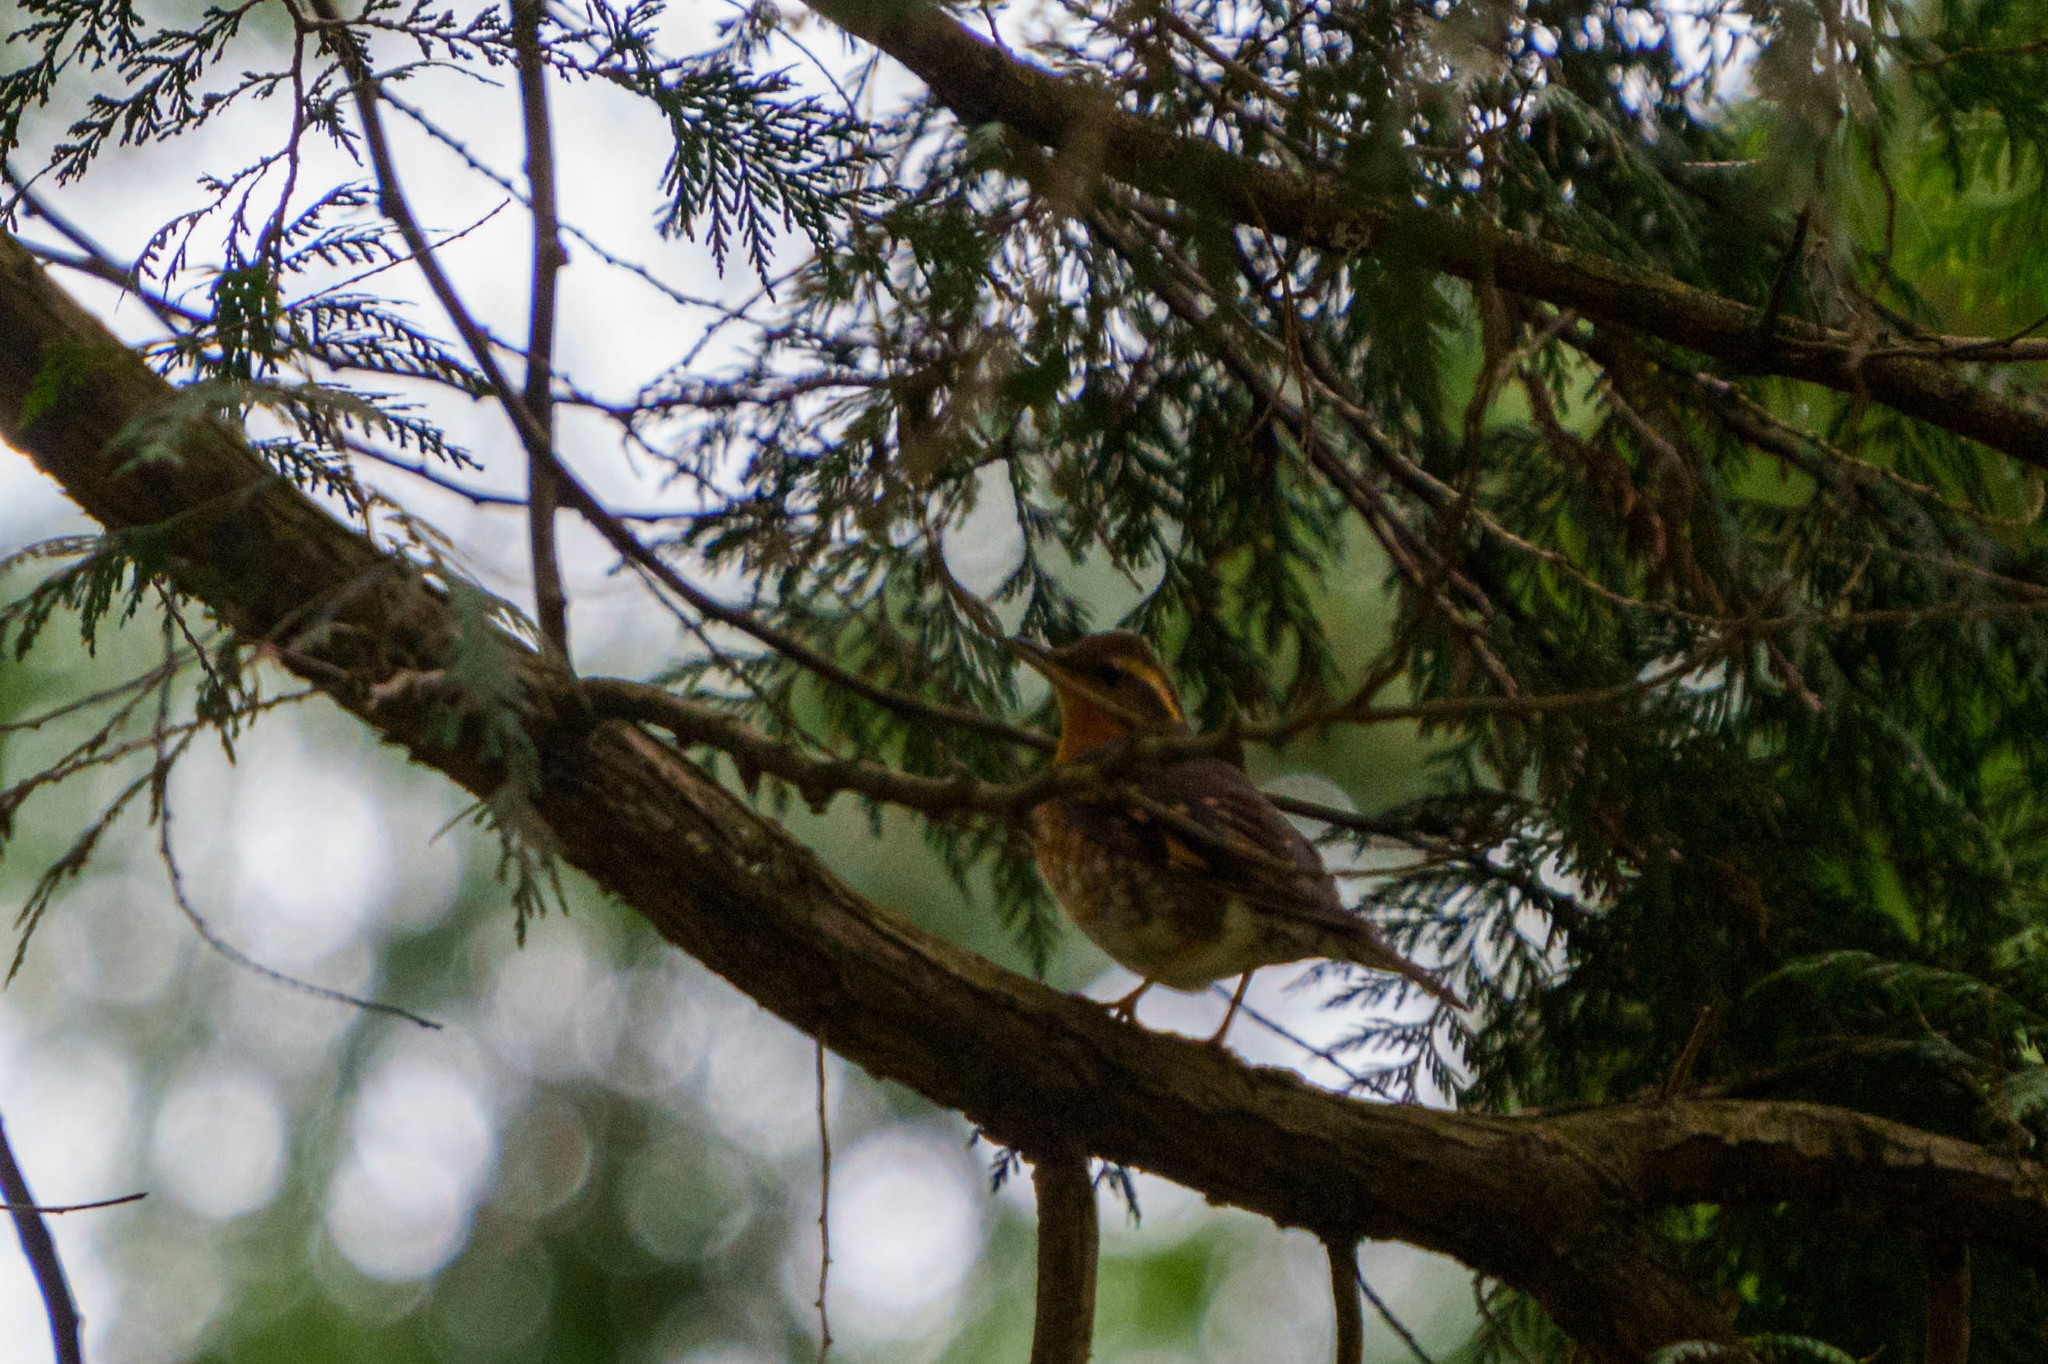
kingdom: Animalia
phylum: Chordata
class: Aves
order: Passeriformes
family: Turdidae
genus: Ixoreus
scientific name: Ixoreus naevius
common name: Varied thrush
